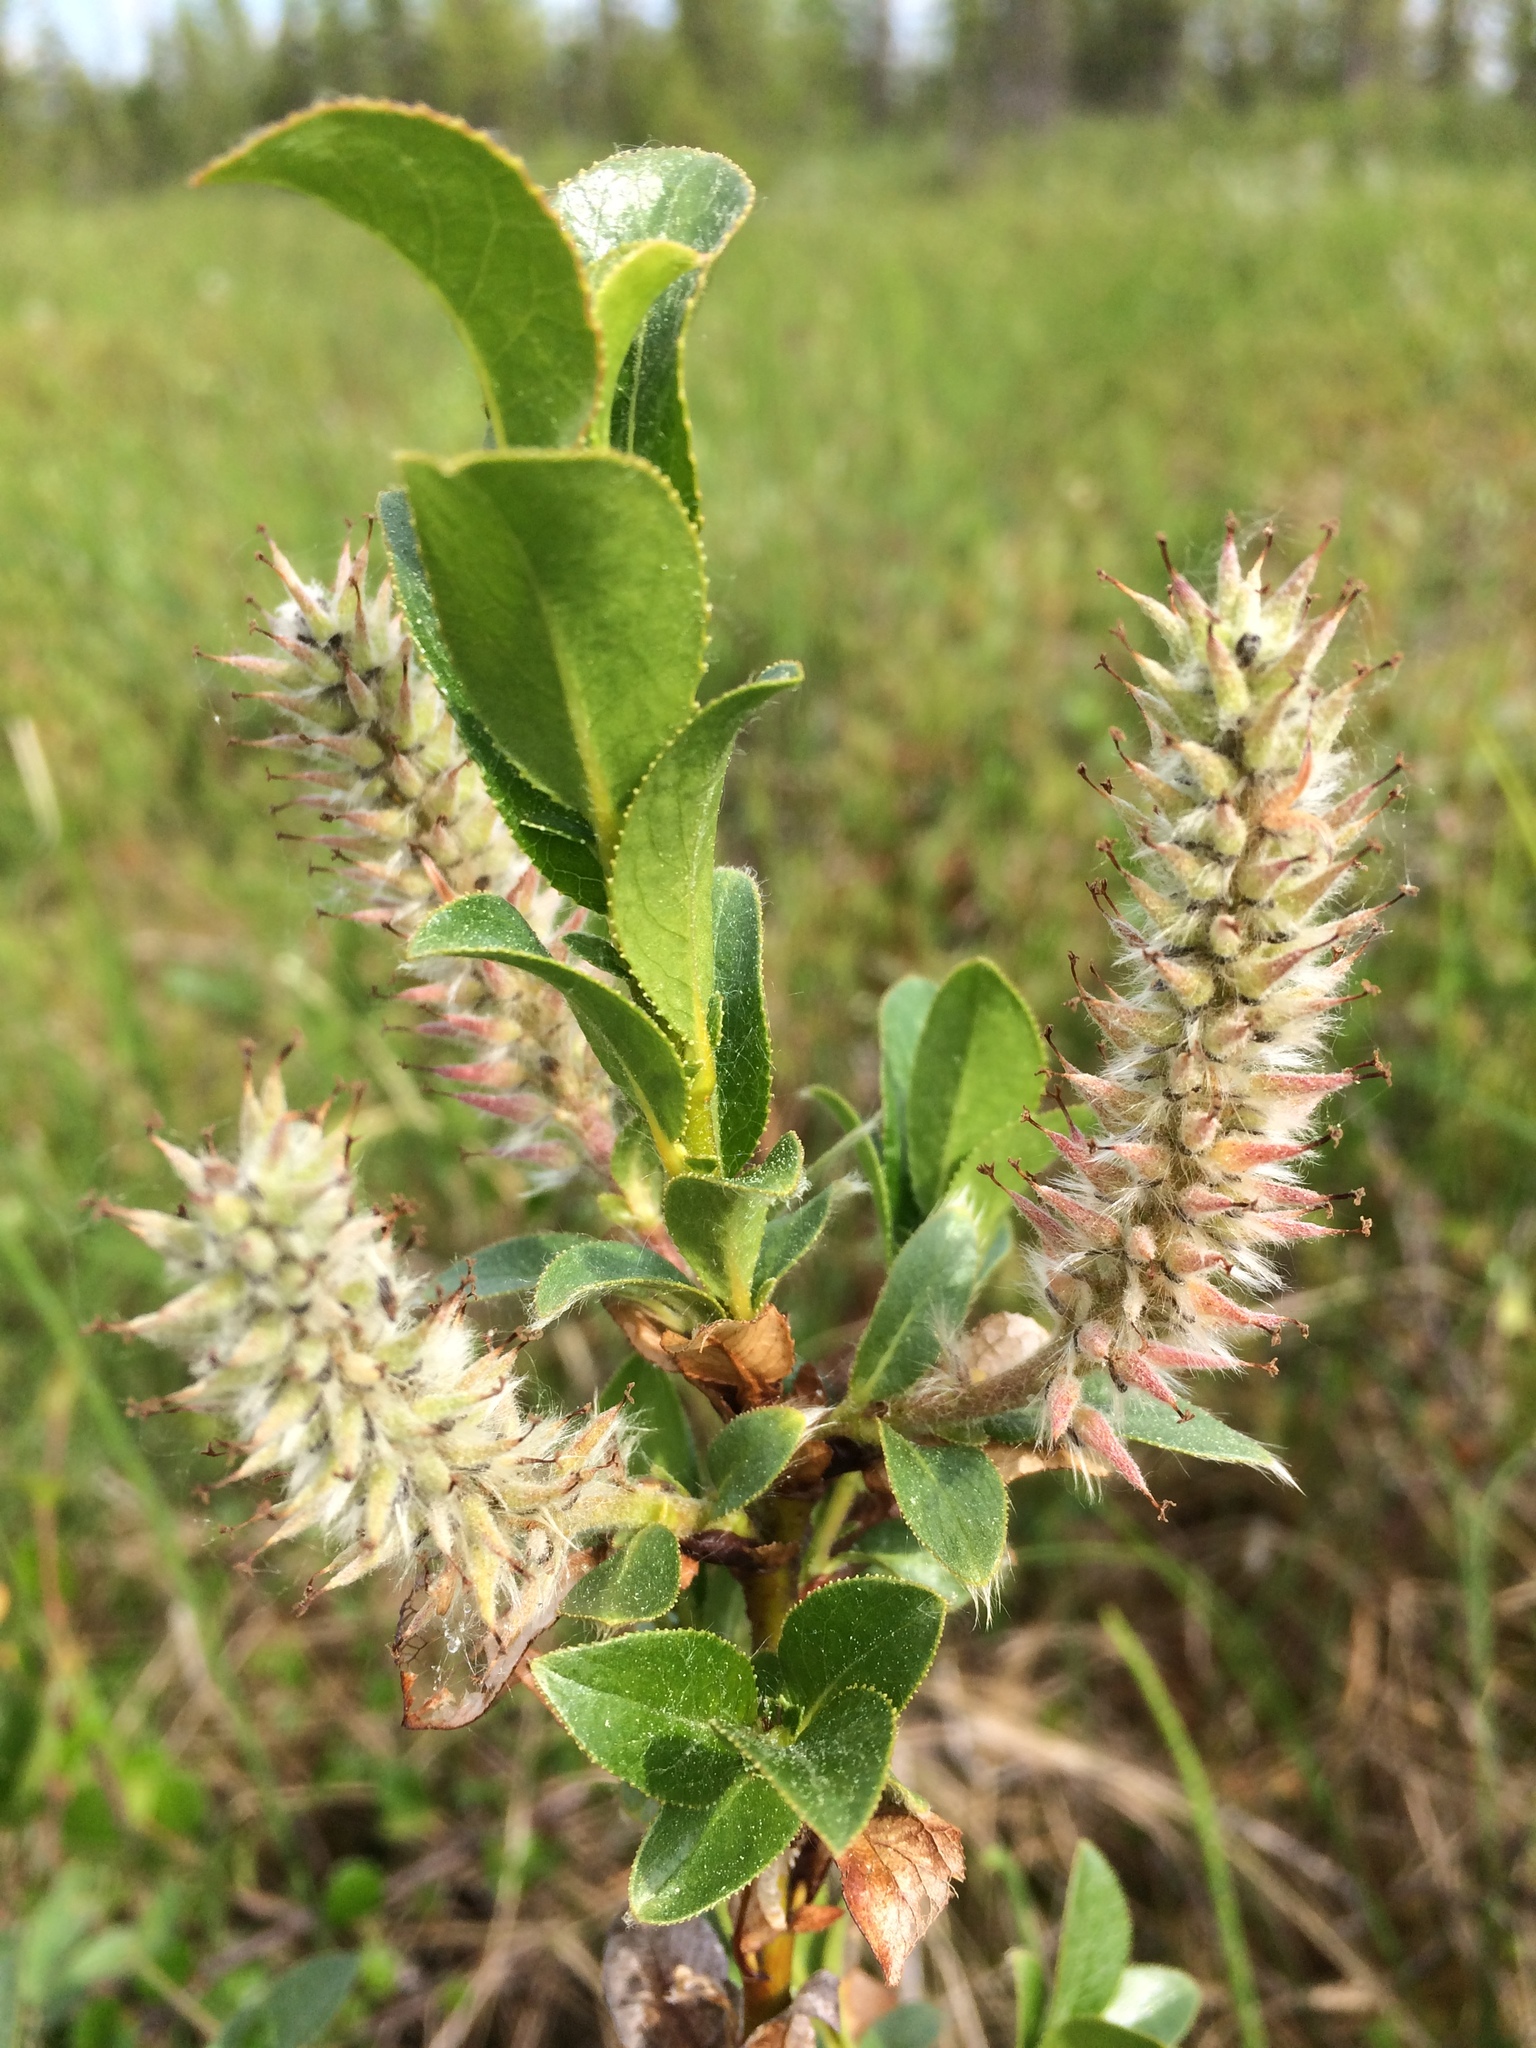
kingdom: Plantae
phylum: Tracheophyta
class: Magnoliopsida
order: Malpighiales
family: Salicaceae
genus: Salix
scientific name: Salix myrsinites
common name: Myrtle willow
